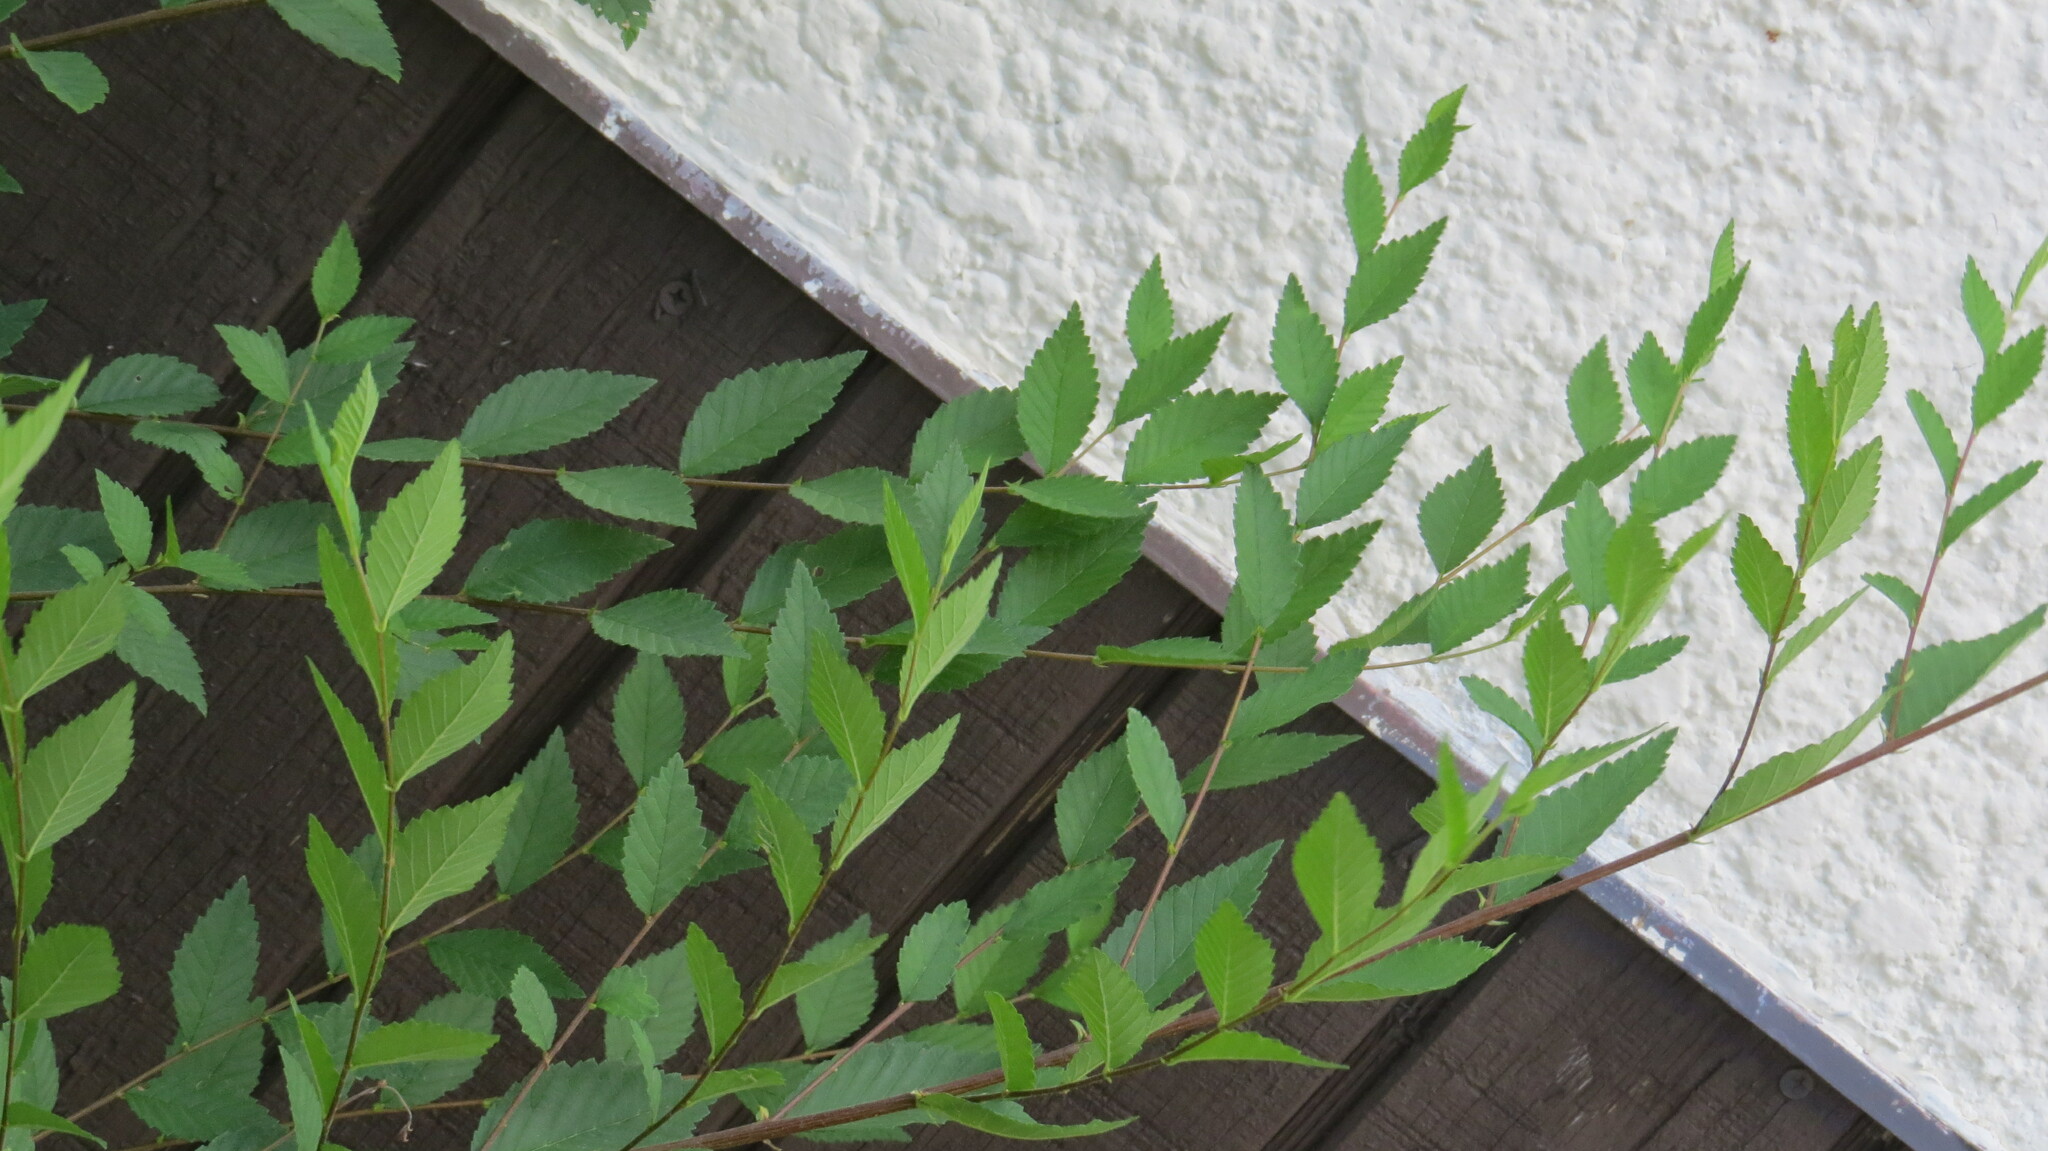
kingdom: Plantae
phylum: Tracheophyta
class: Magnoliopsida
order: Rosales
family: Ulmaceae
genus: Ulmus
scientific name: Ulmus pumila
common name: Siberian elm
